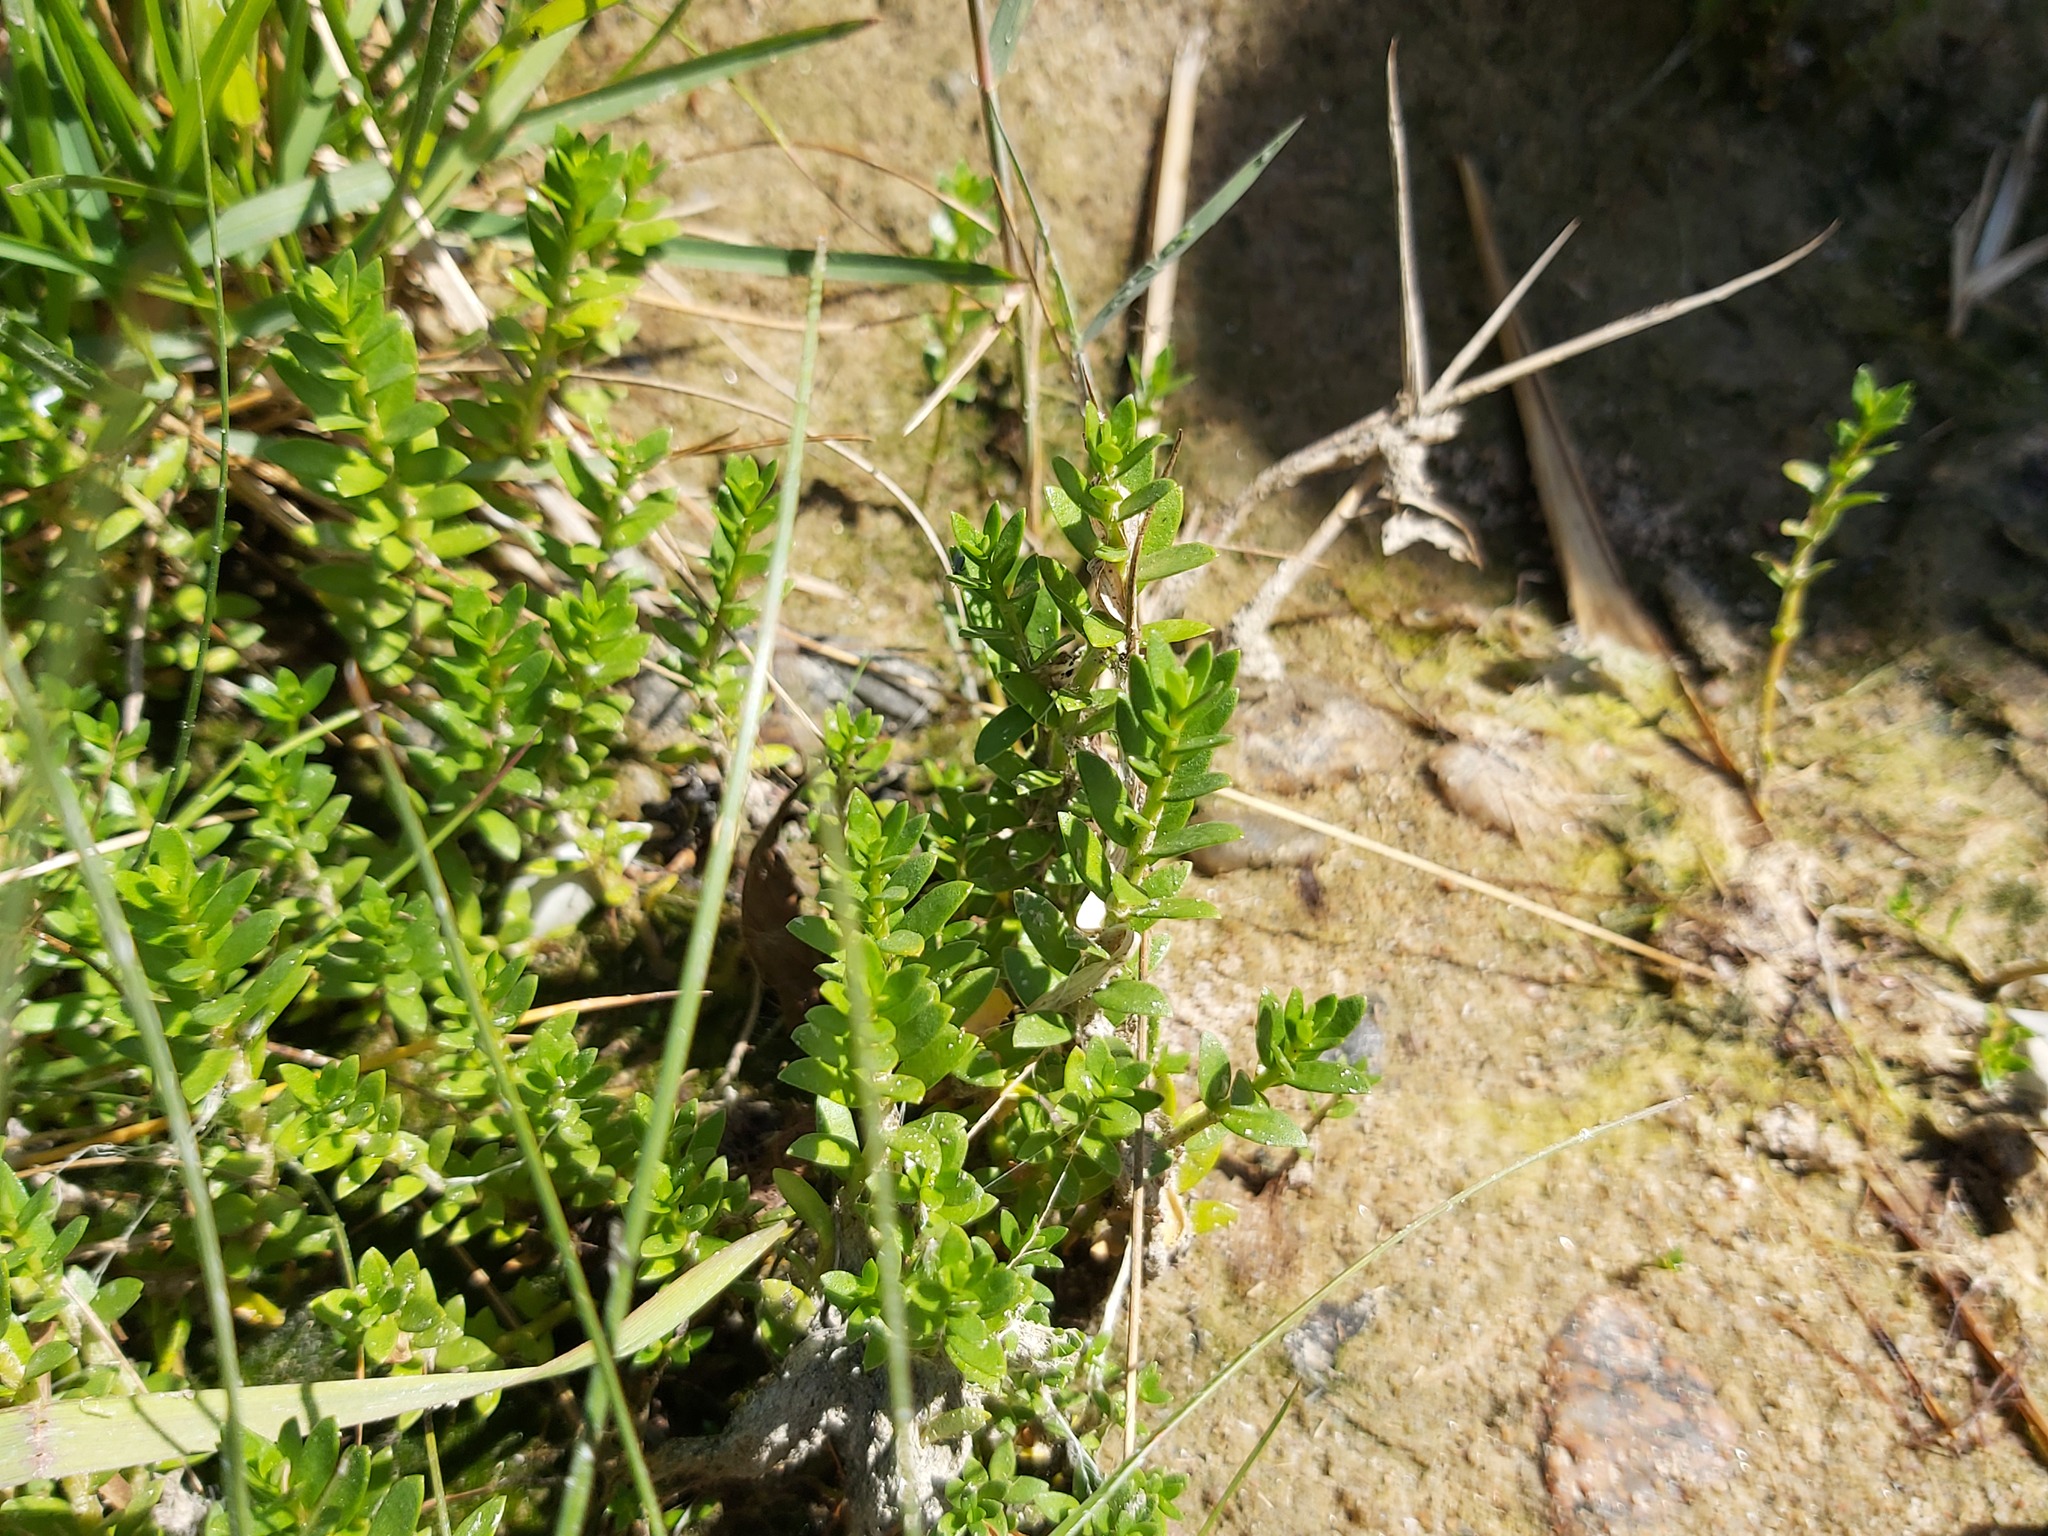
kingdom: Plantae
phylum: Tracheophyta
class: Magnoliopsida
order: Ericales
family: Primulaceae
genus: Lysimachia
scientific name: Lysimachia maritima
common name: Sea milkwort
